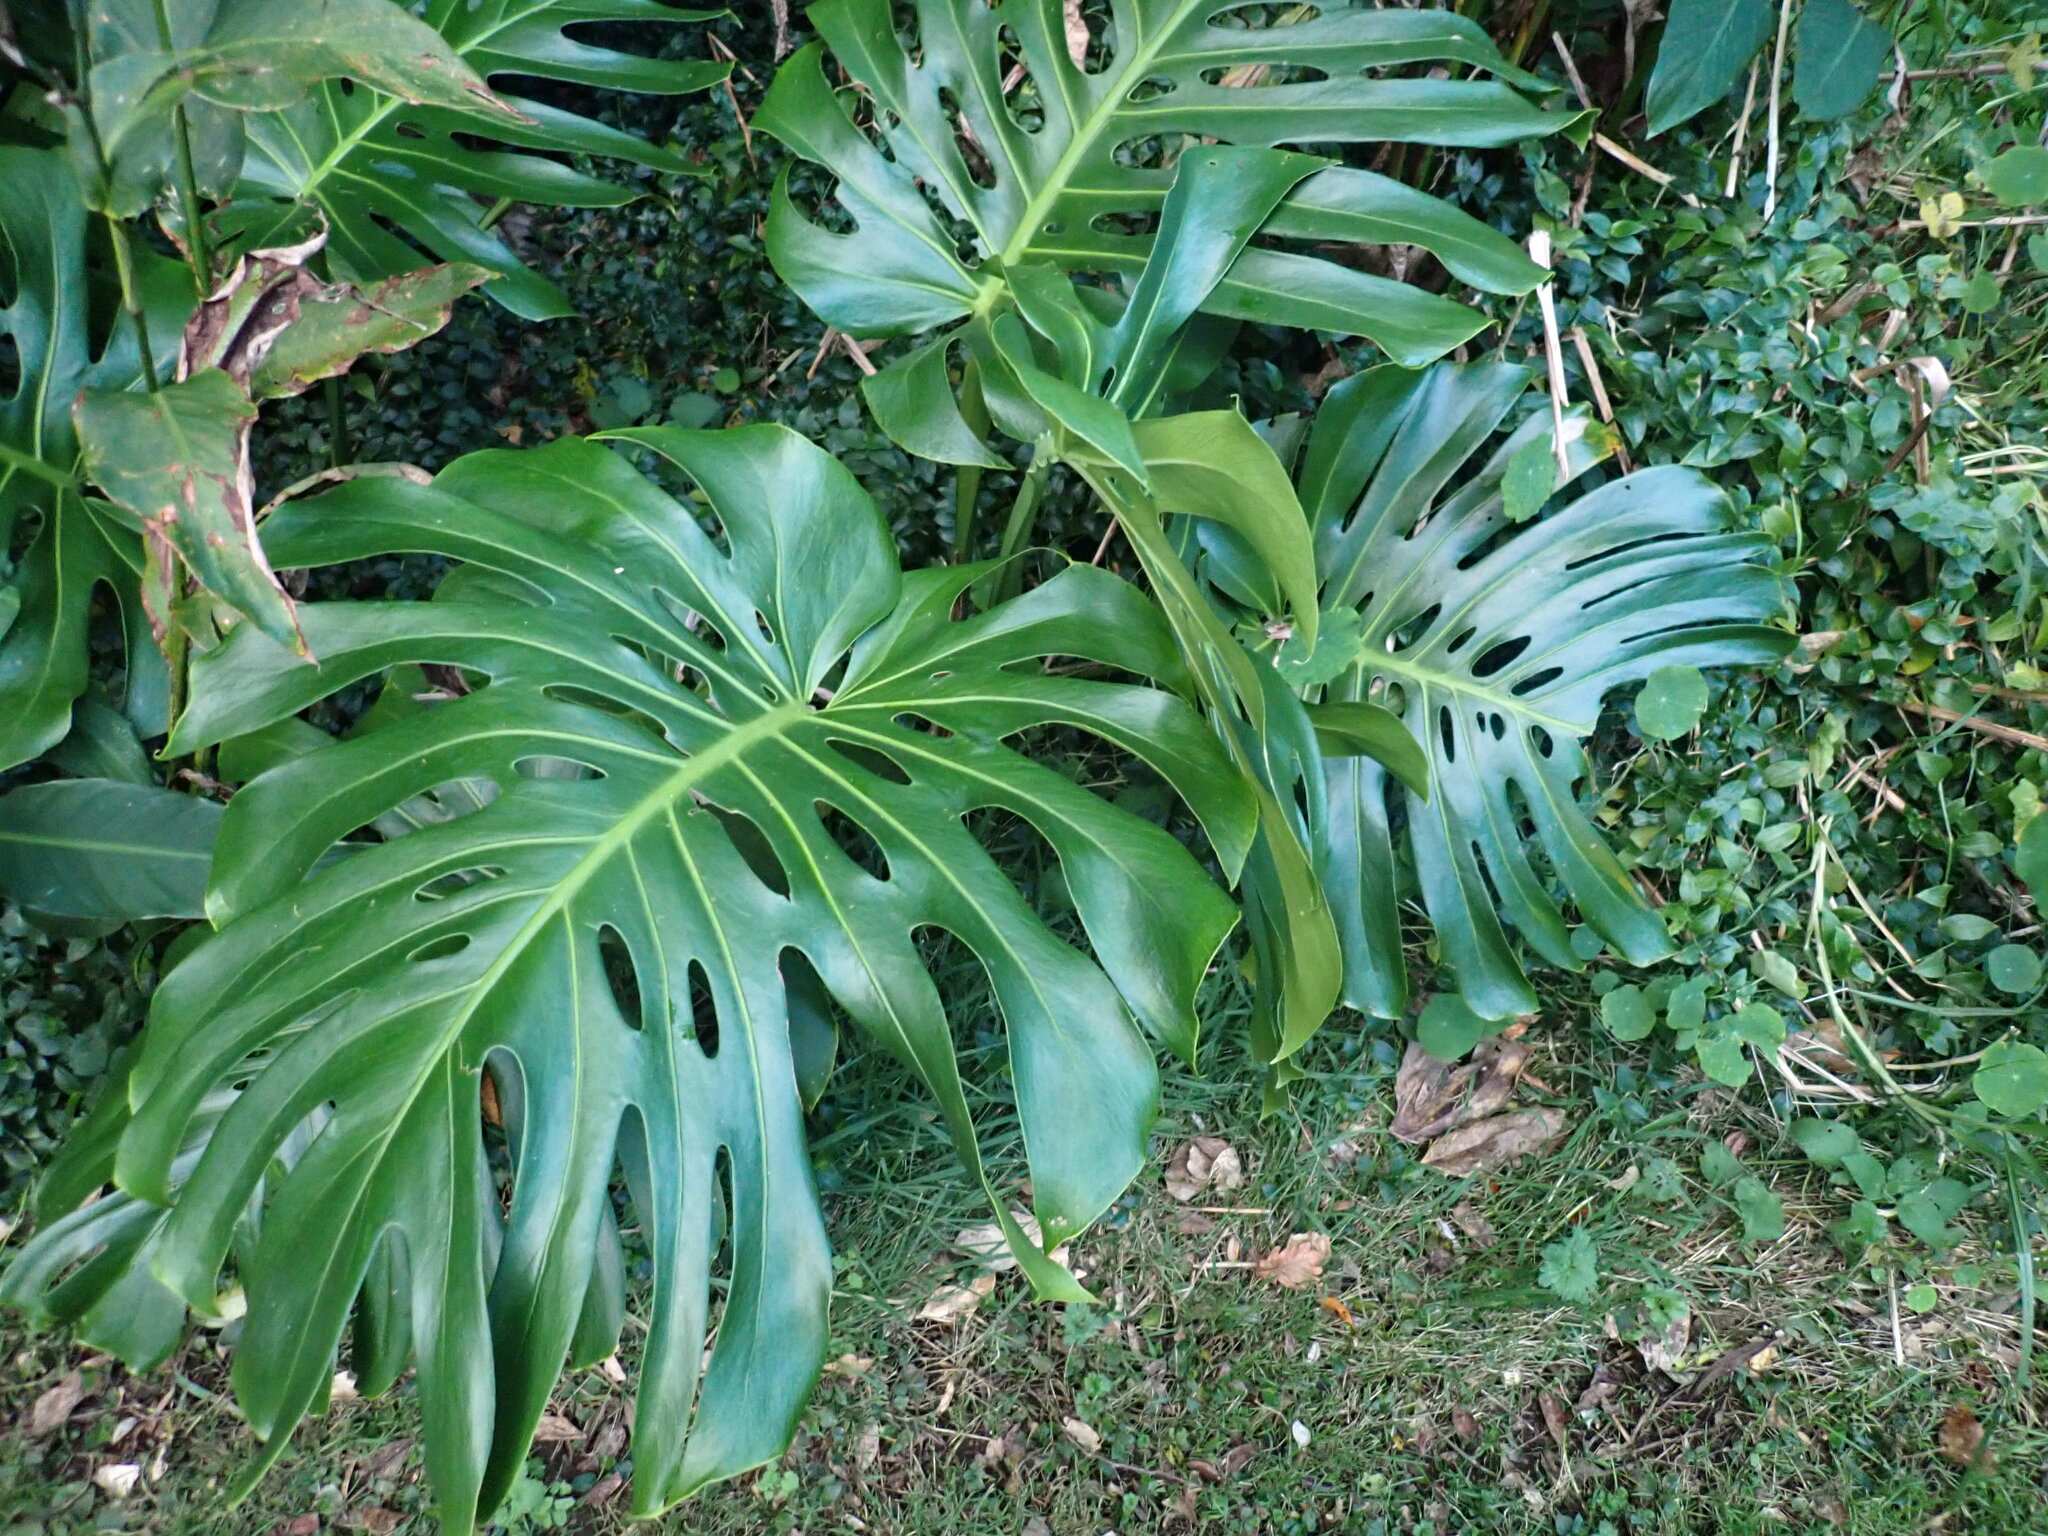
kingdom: Plantae
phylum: Tracheophyta
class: Liliopsida
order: Alismatales
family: Araceae
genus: Monstera
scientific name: Monstera deliciosa
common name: Cut-leaf-philodendron
